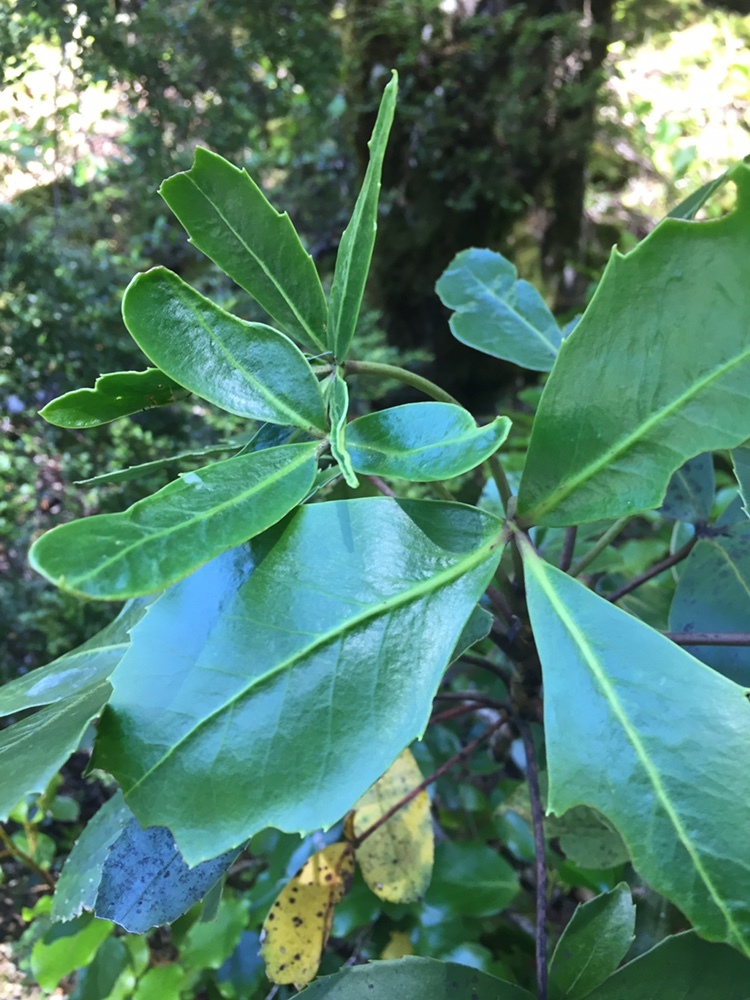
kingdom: Plantae
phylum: Tracheophyta
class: Magnoliopsida
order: Apiales
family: Araliaceae
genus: Neopanax
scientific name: Neopanax colensoi
